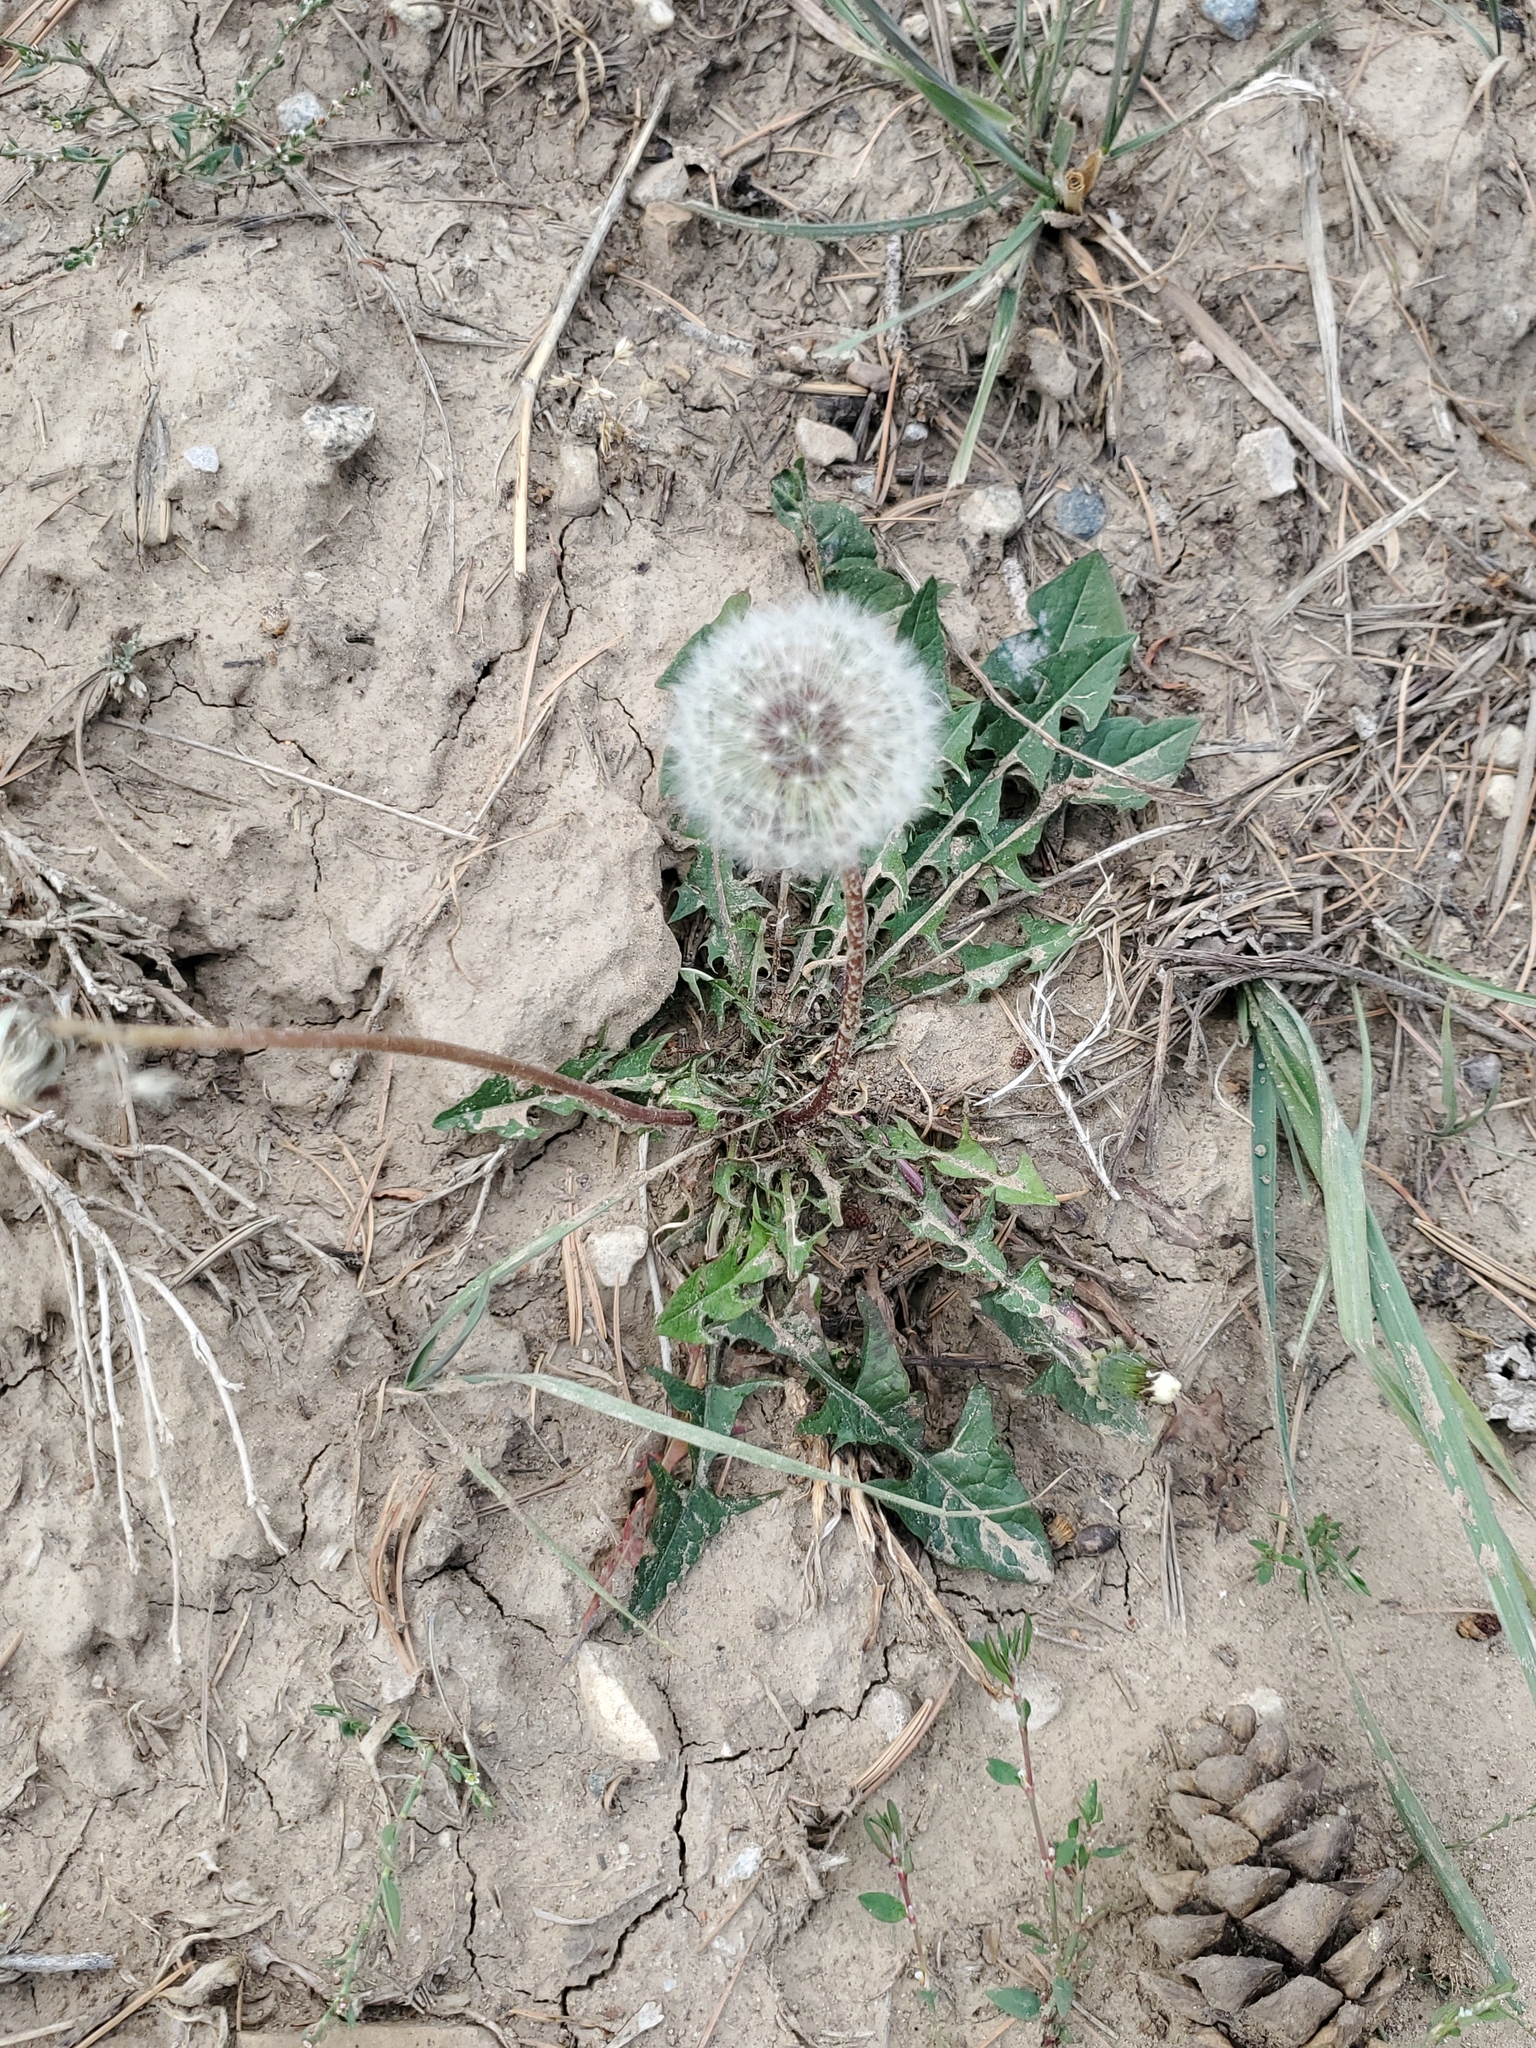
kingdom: Plantae
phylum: Tracheophyta
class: Magnoliopsida
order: Asterales
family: Asteraceae
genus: Taraxacum
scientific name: Taraxacum officinale
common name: Common dandelion
